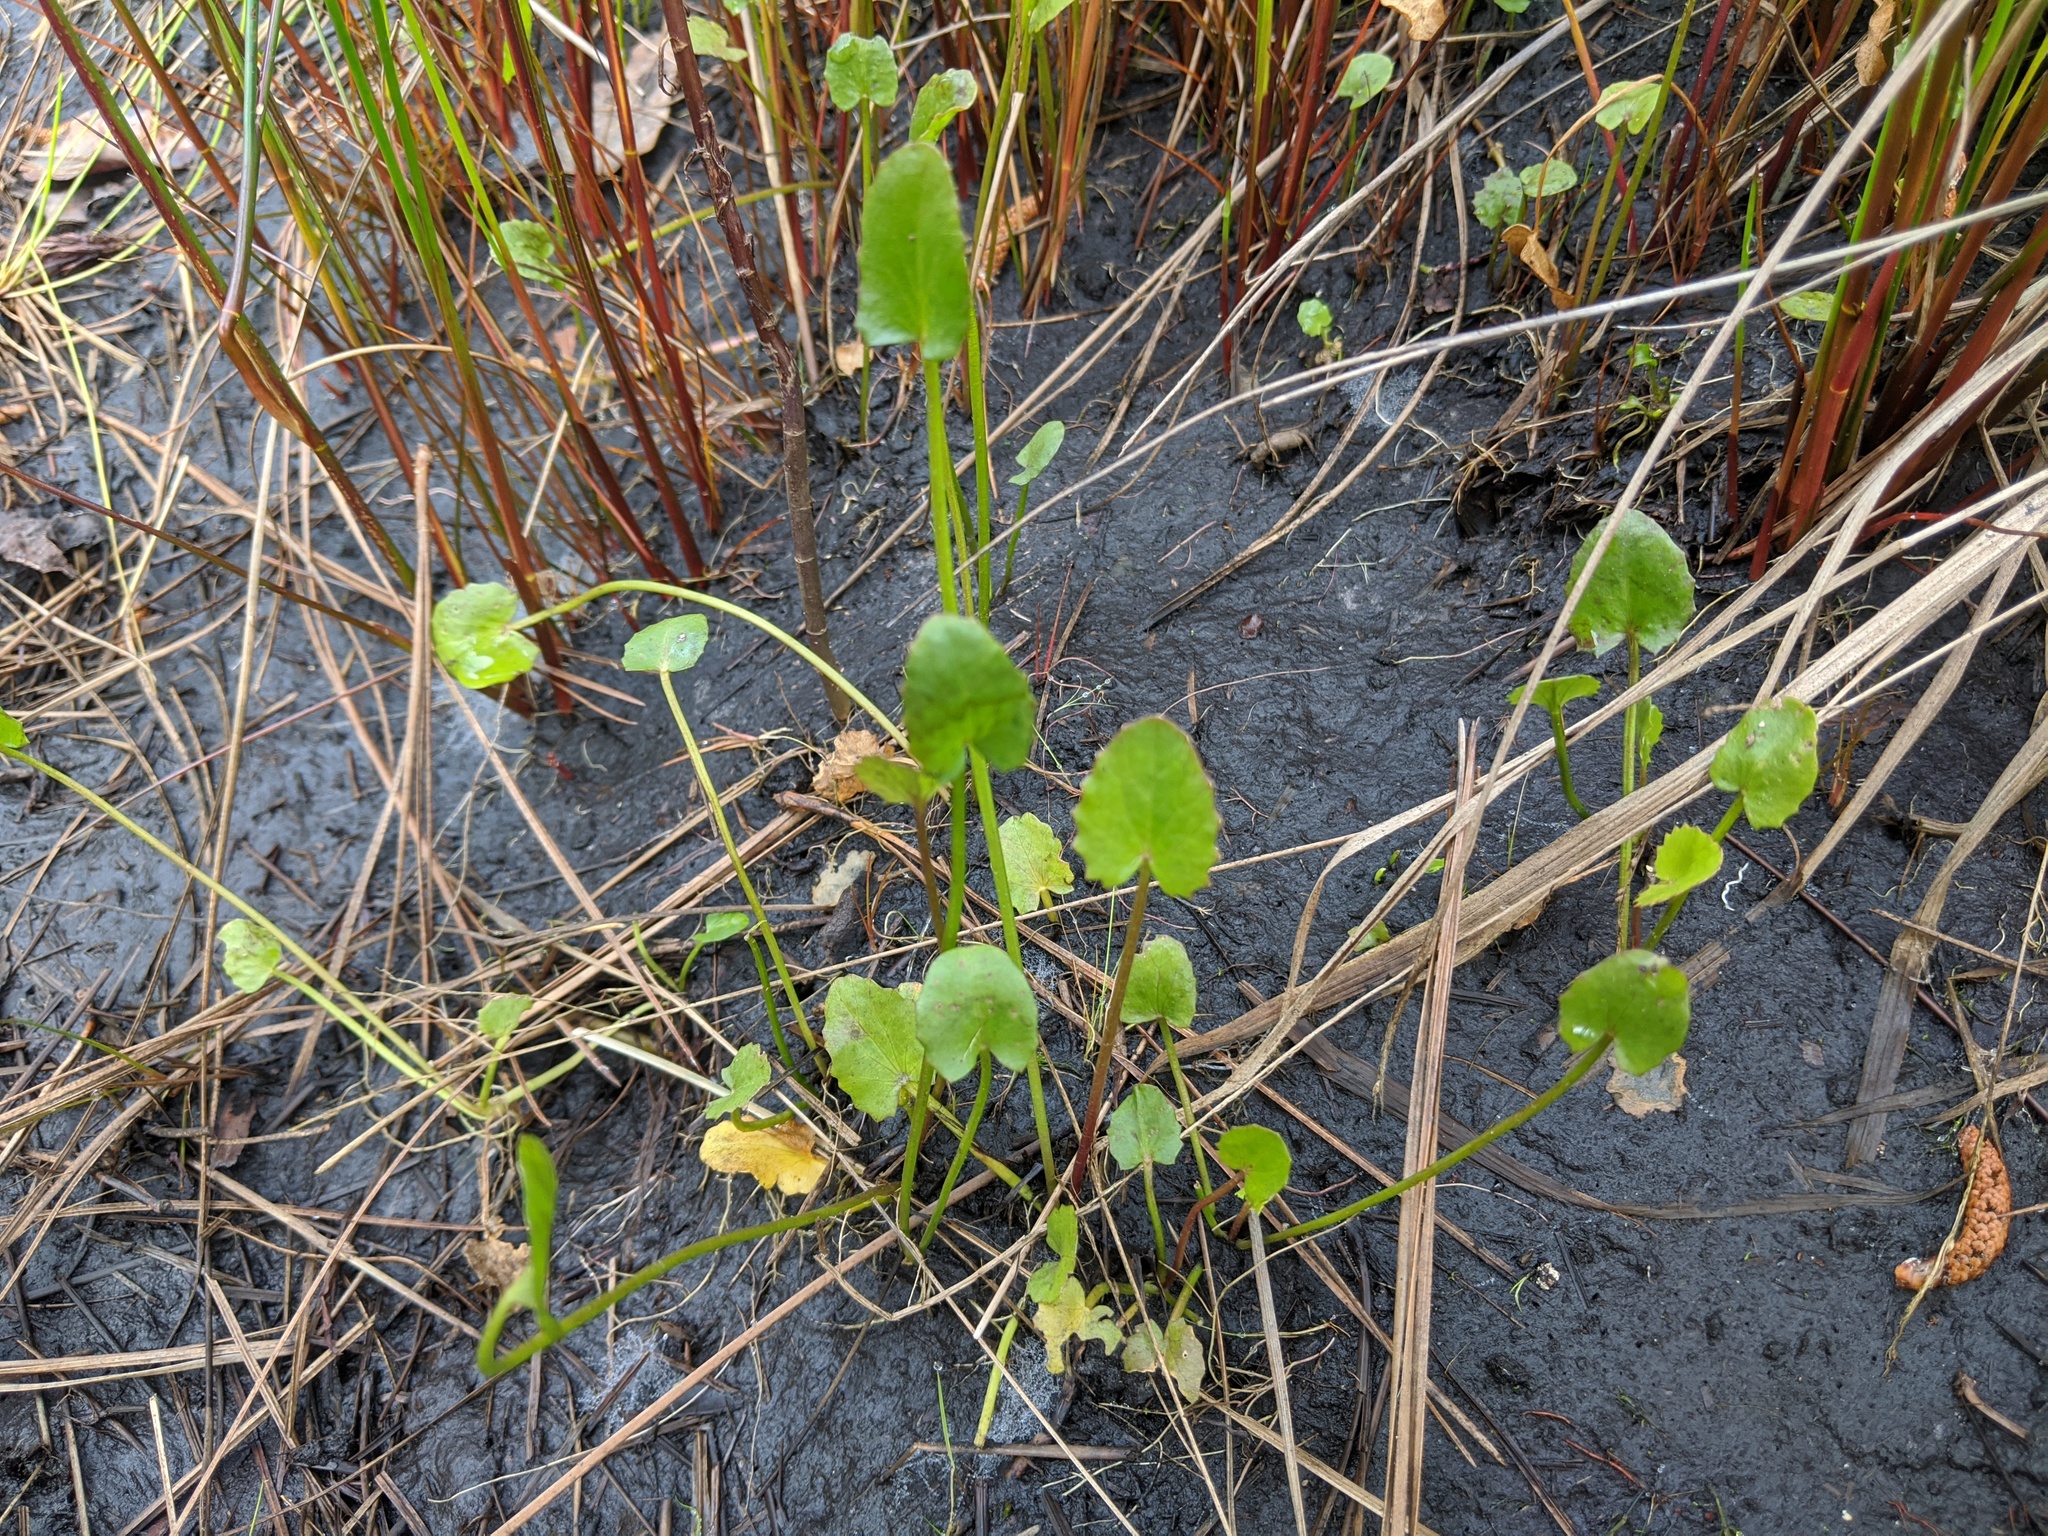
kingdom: Plantae
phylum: Tracheophyta
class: Magnoliopsida
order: Apiales
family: Apiaceae
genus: Centella
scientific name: Centella asiatica
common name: Spadeleaf
